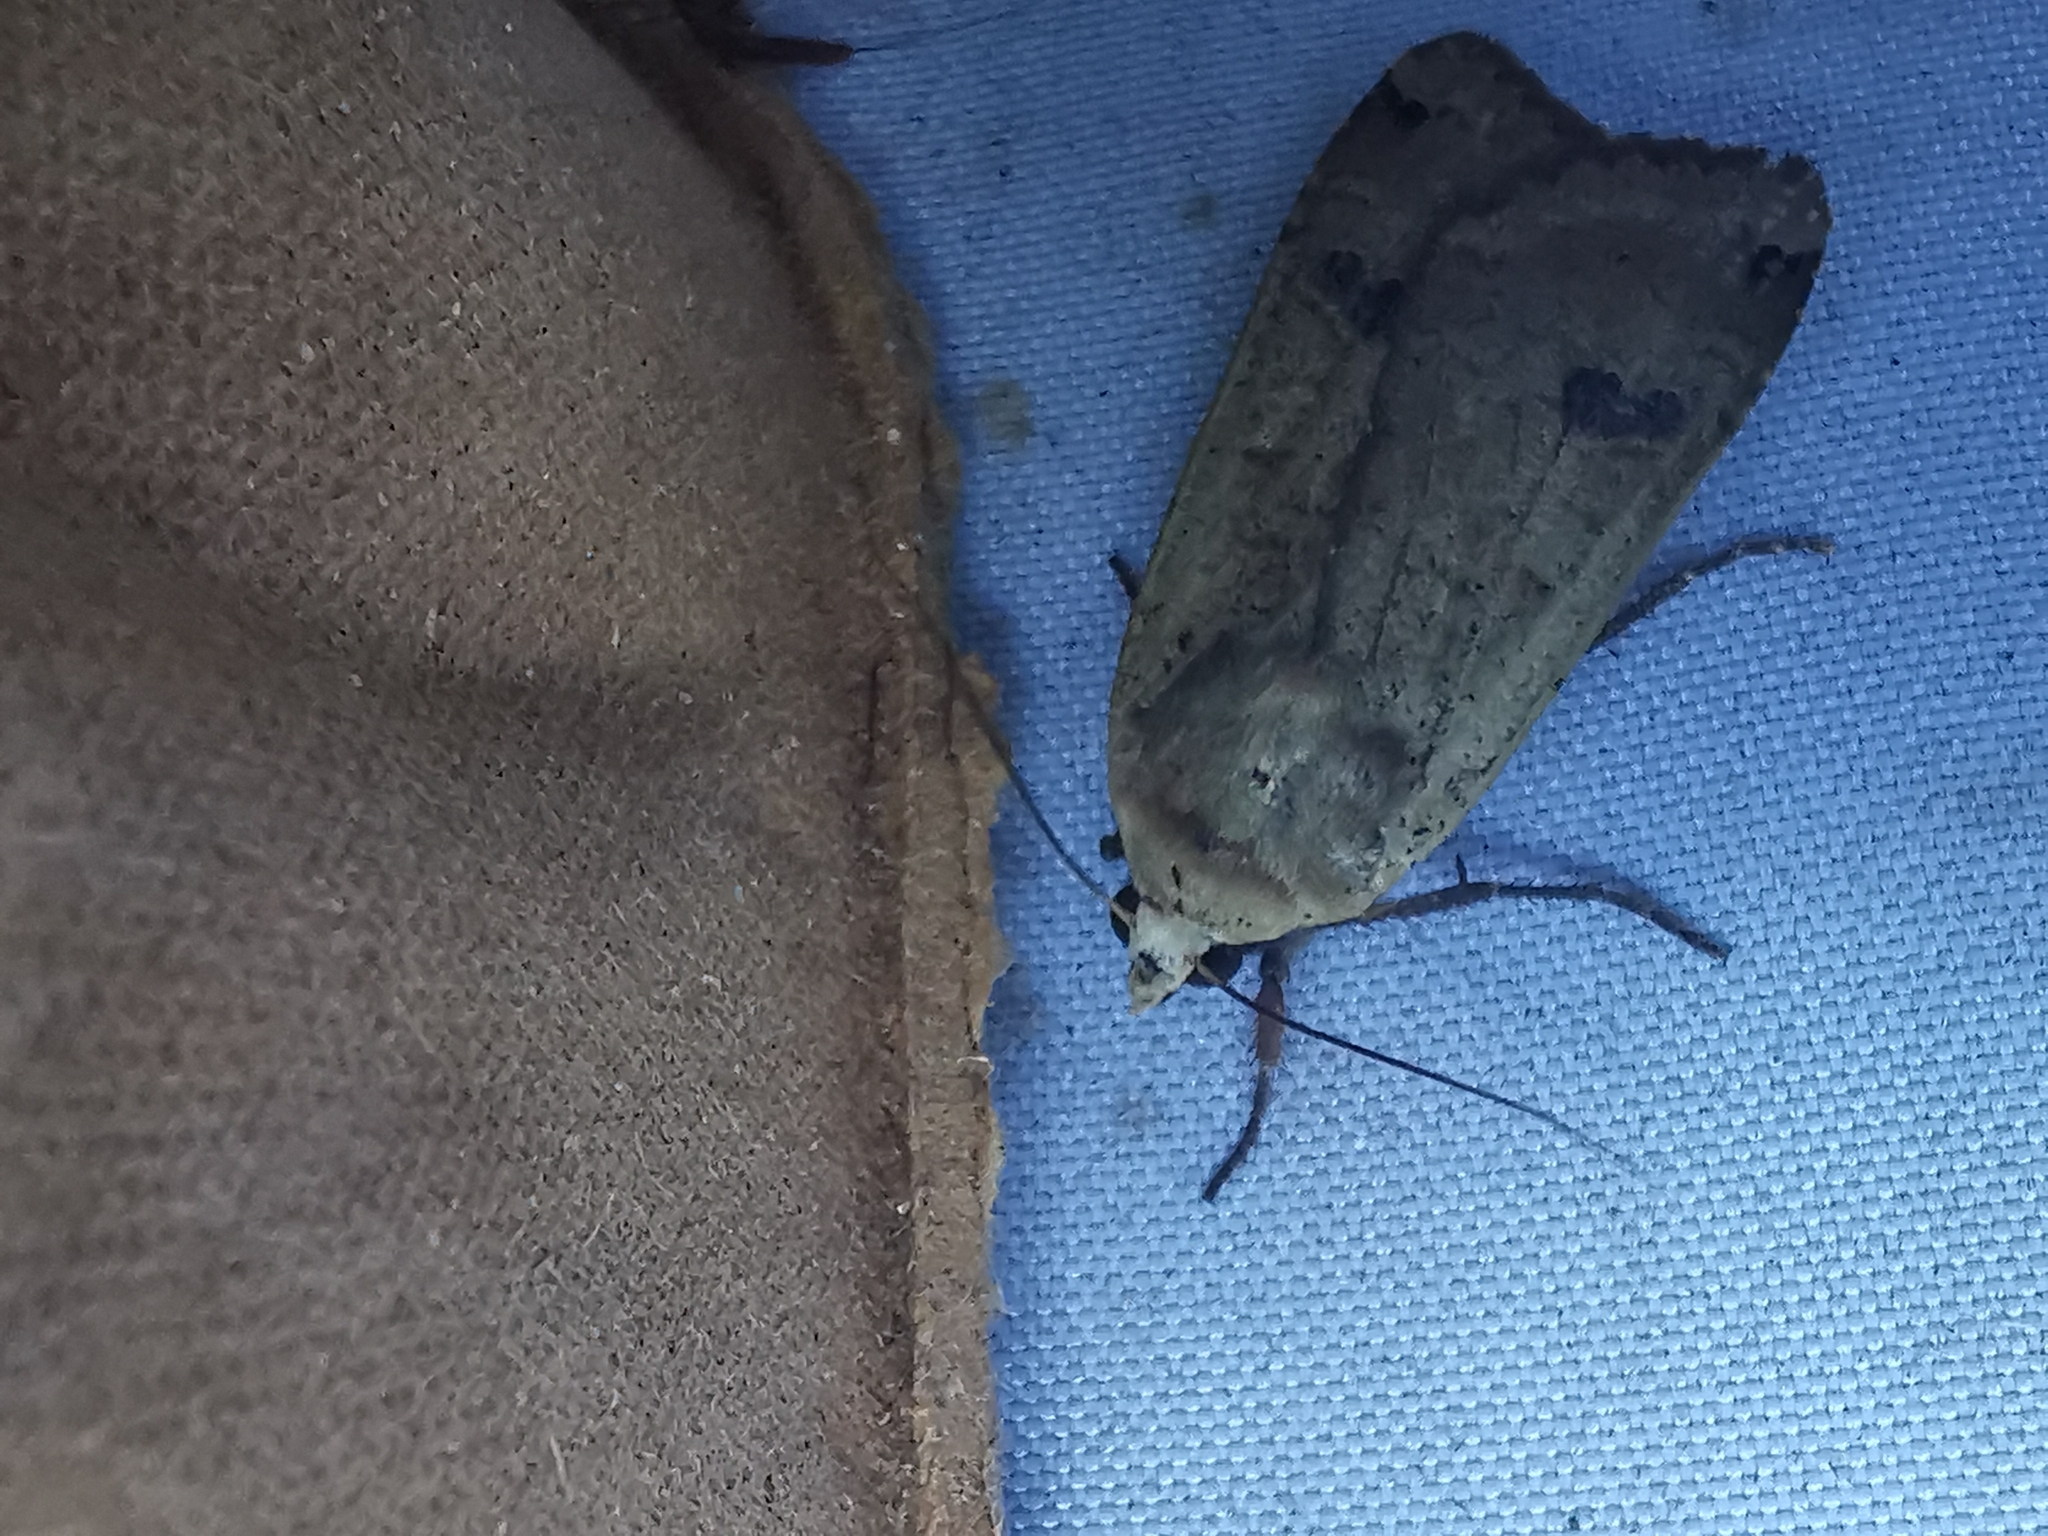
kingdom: Animalia
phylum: Arthropoda
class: Insecta
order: Lepidoptera
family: Noctuidae
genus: Noctua
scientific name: Noctua pronuba
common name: Large yellow underwing
